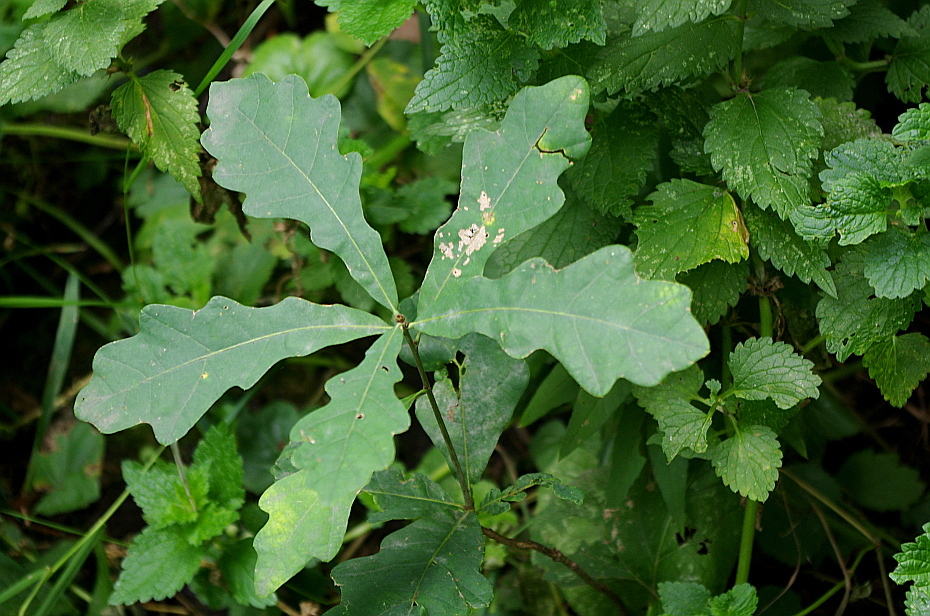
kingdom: Plantae
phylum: Tracheophyta
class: Magnoliopsida
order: Fagales
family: Fagaceae
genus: Quercus
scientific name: Quercus robur
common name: Pedunculate oak
